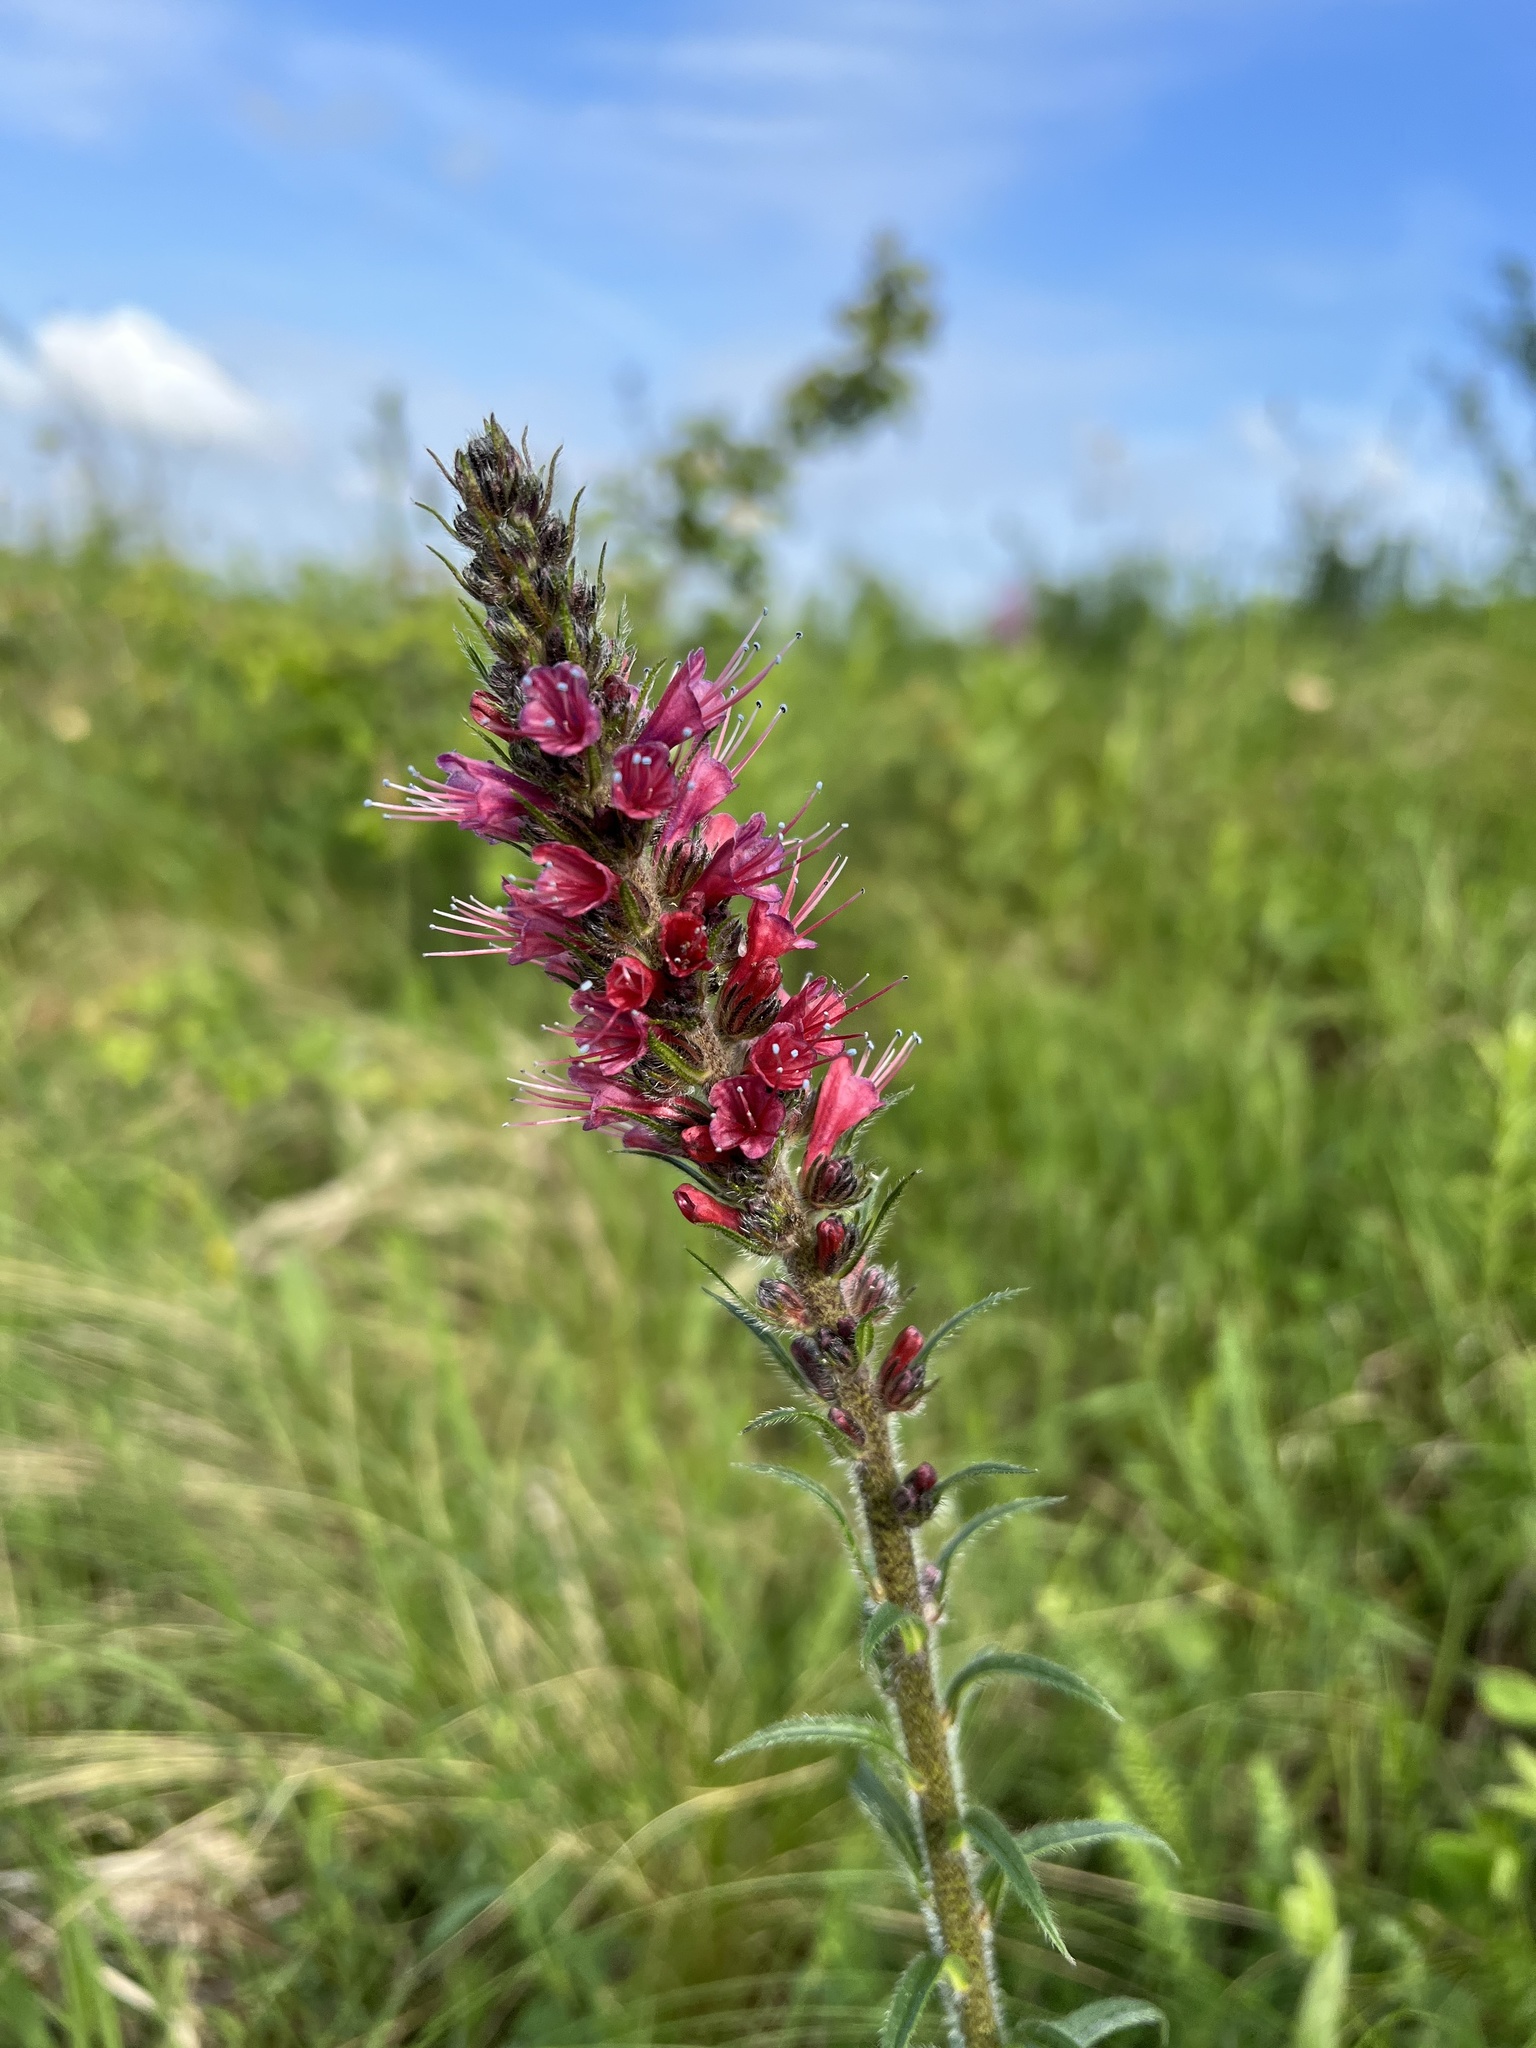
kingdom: Plantae
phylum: Tracheophyta
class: Magnoliopsida
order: Boraginales
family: Boraginaceae
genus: Pontechium
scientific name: Pontechium maculatum
